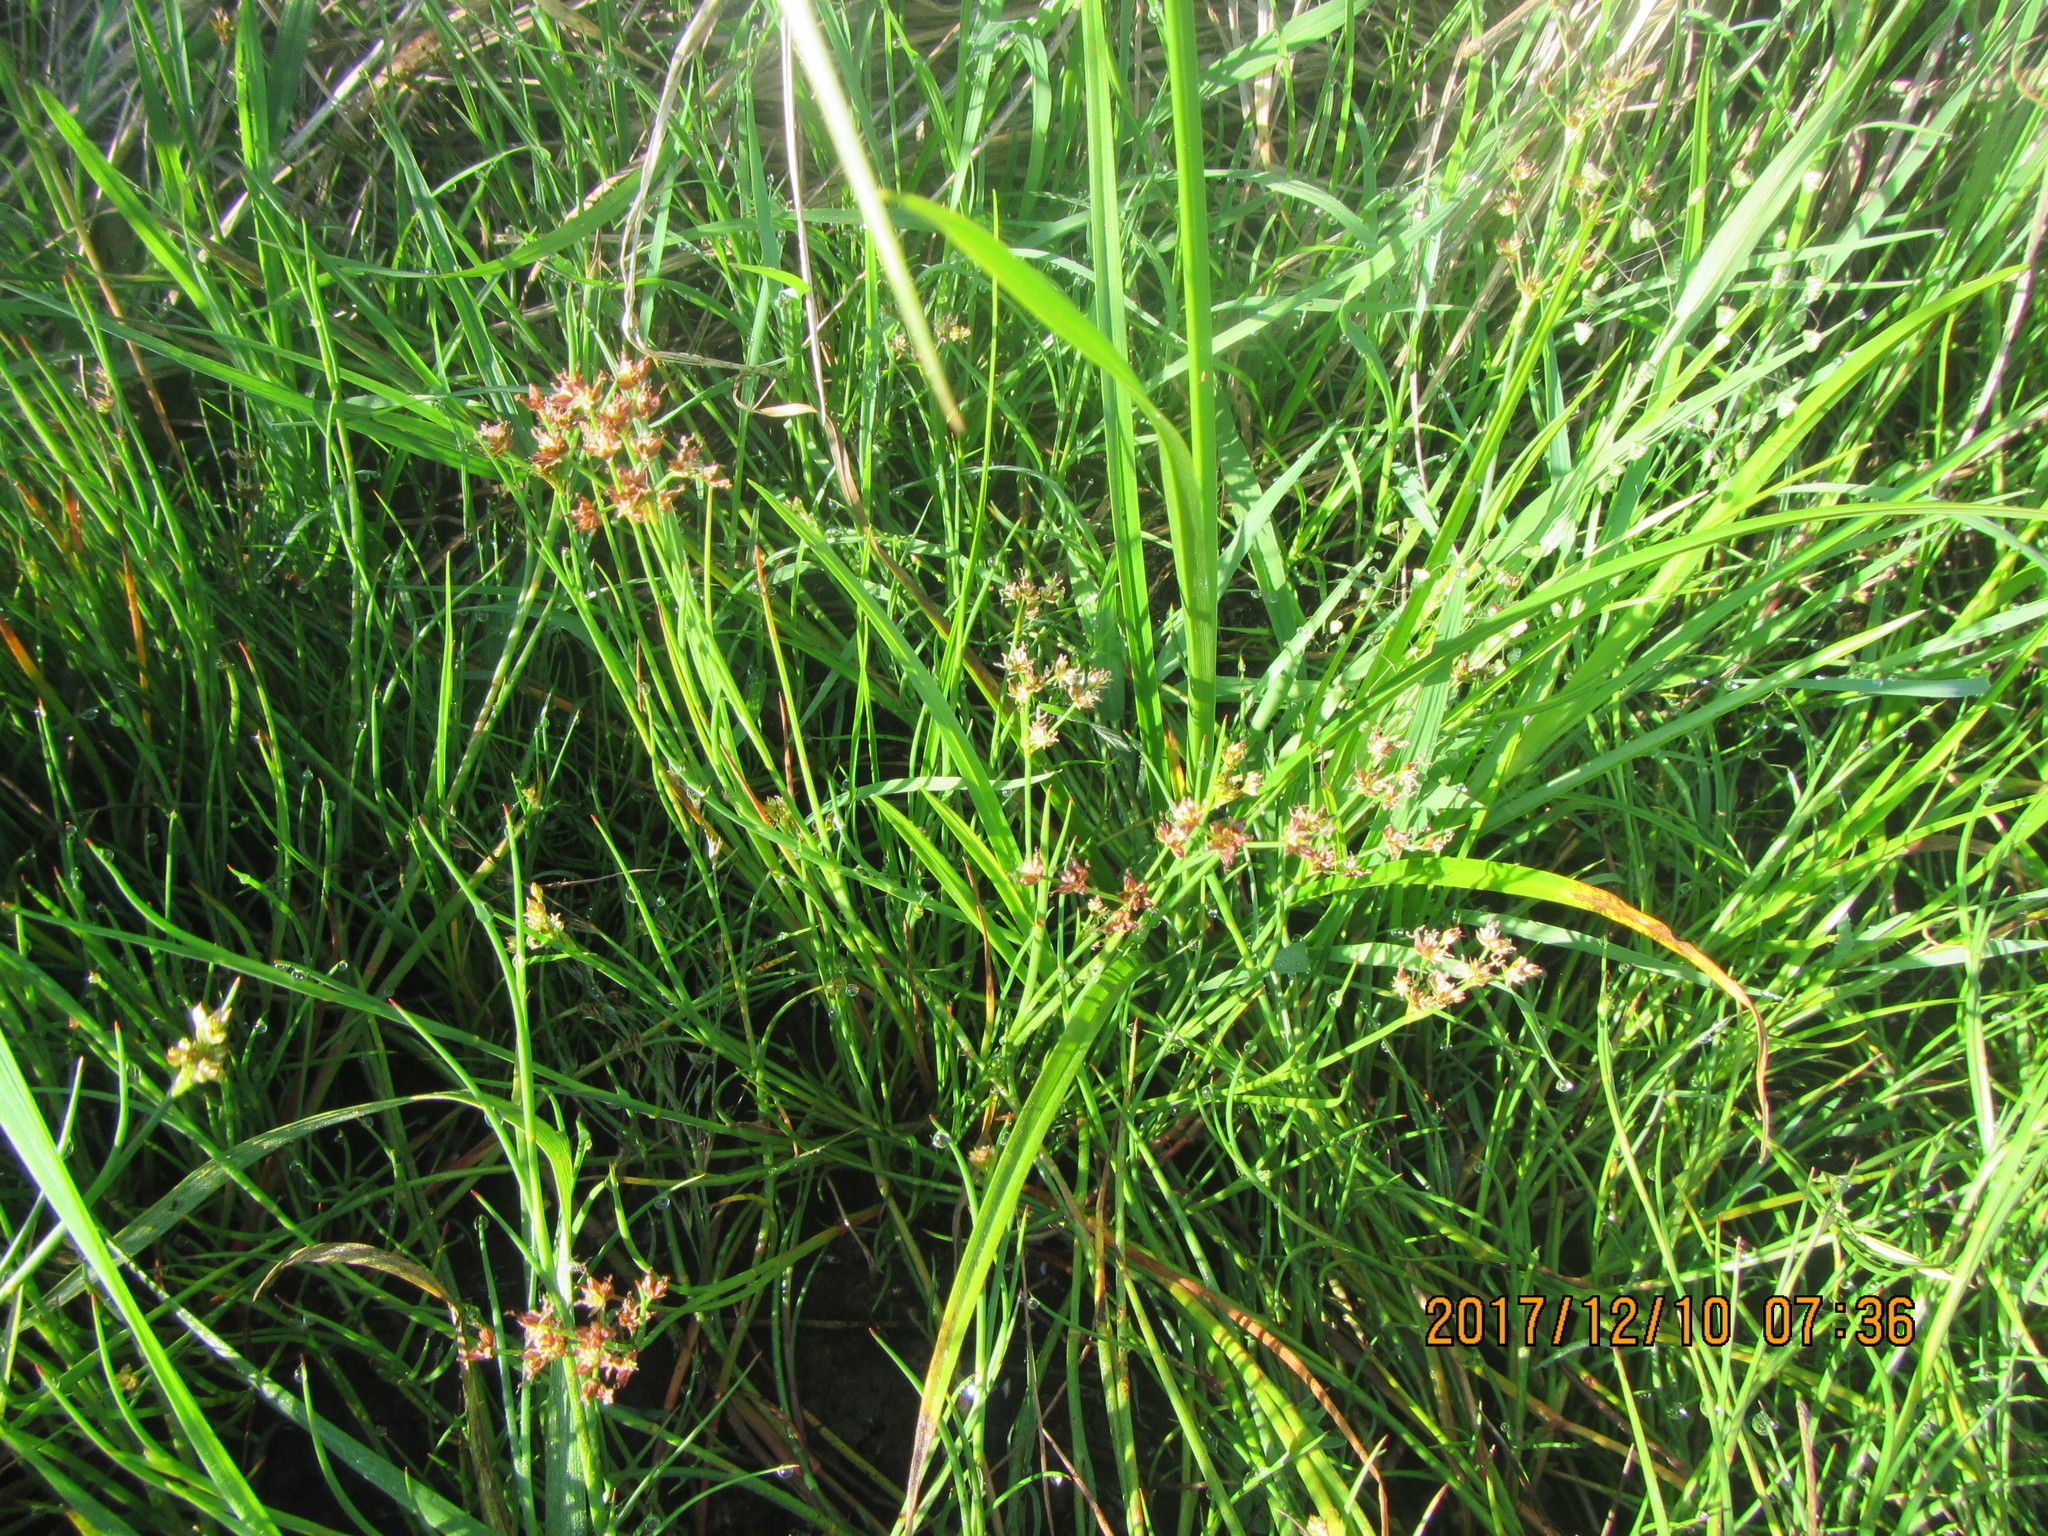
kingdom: Plantae
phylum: Tracheophyta
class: Liliopsida
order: Poales
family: Juncaceae
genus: Juncus
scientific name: Juncus bulbosus
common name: Bulbous rush
